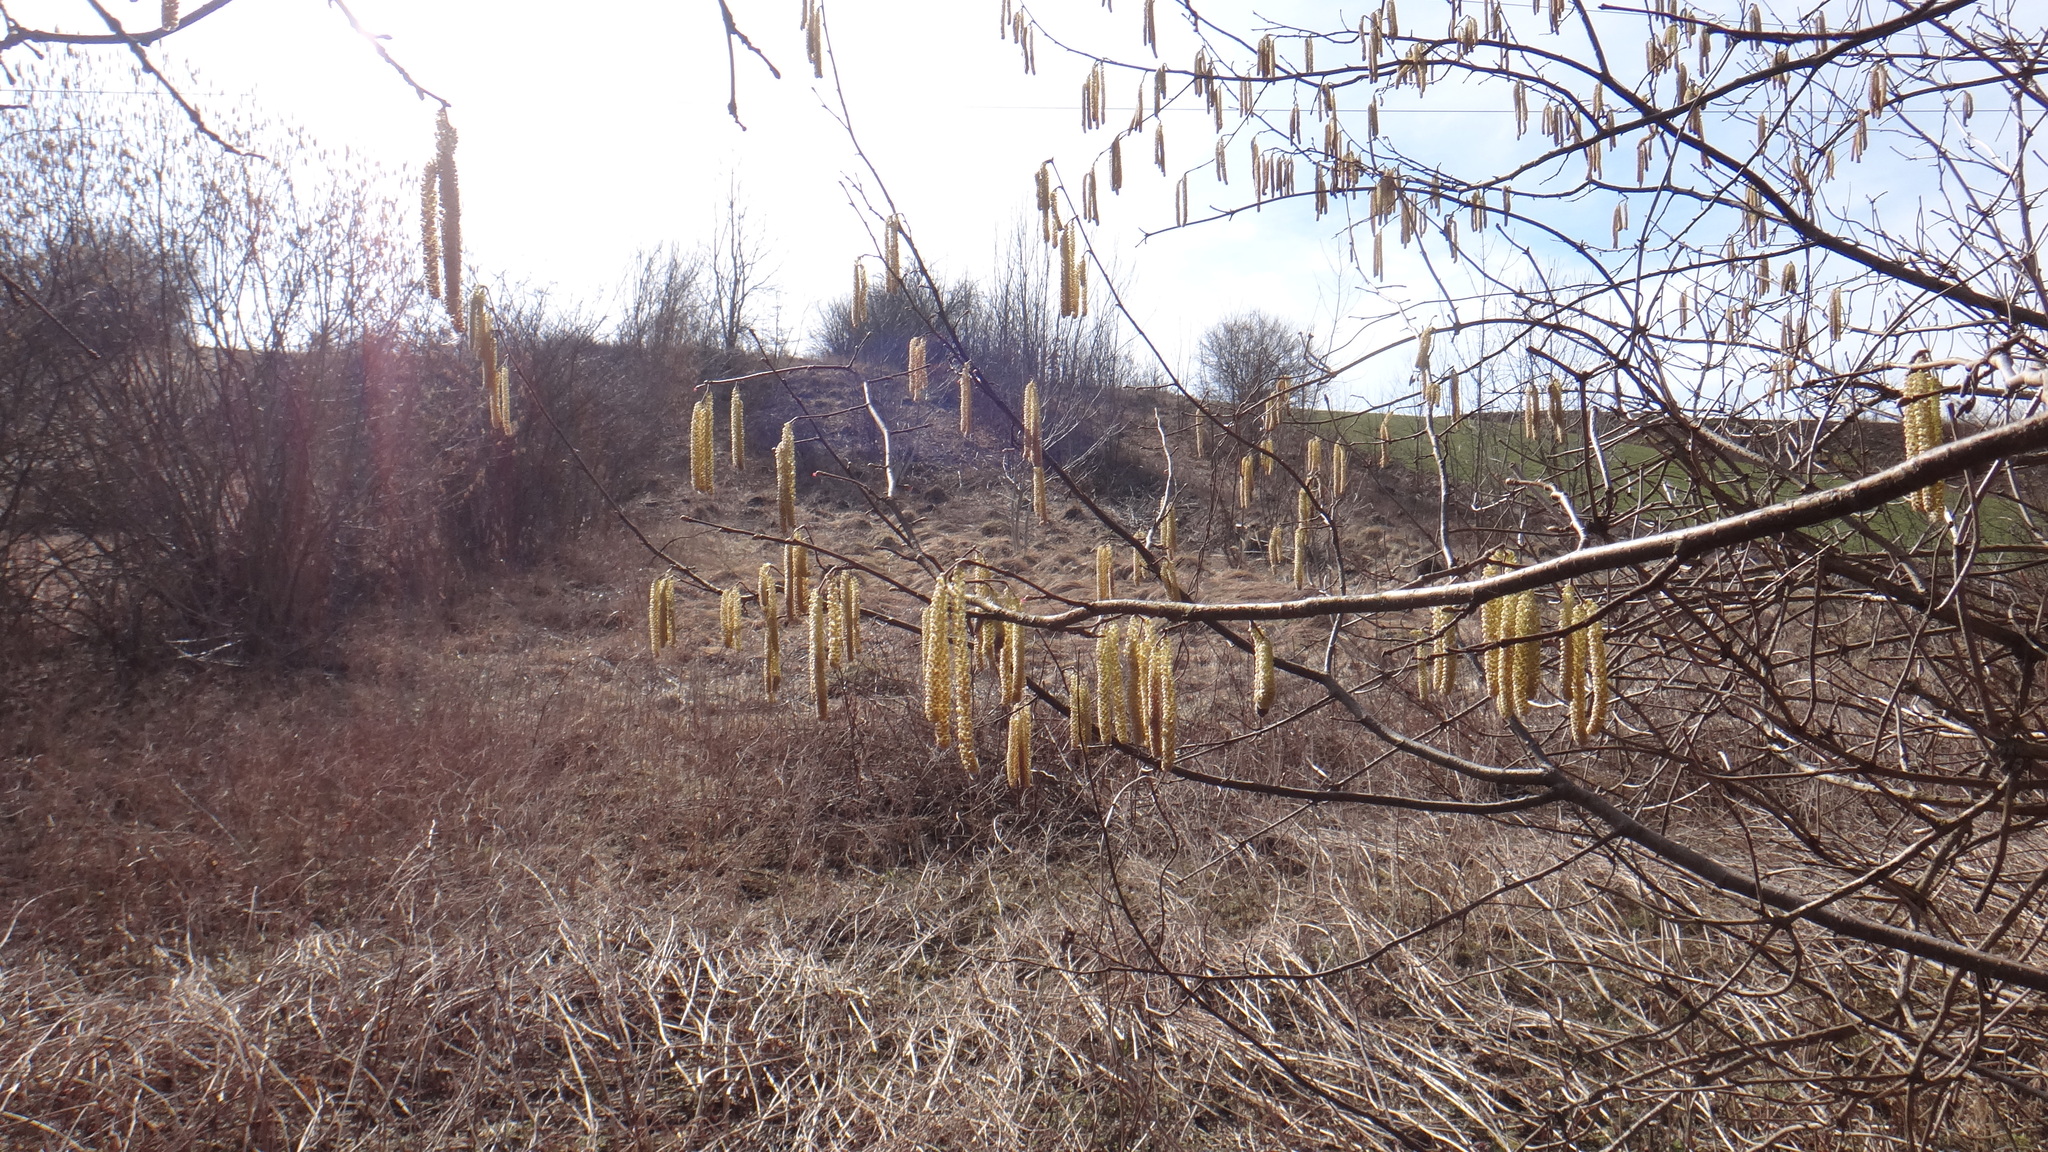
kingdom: Plantae
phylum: Tracheophyta
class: Magnoliopsida
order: Fagales
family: Betulaceae
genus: Corylus
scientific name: Corylus avellana
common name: European hazel
